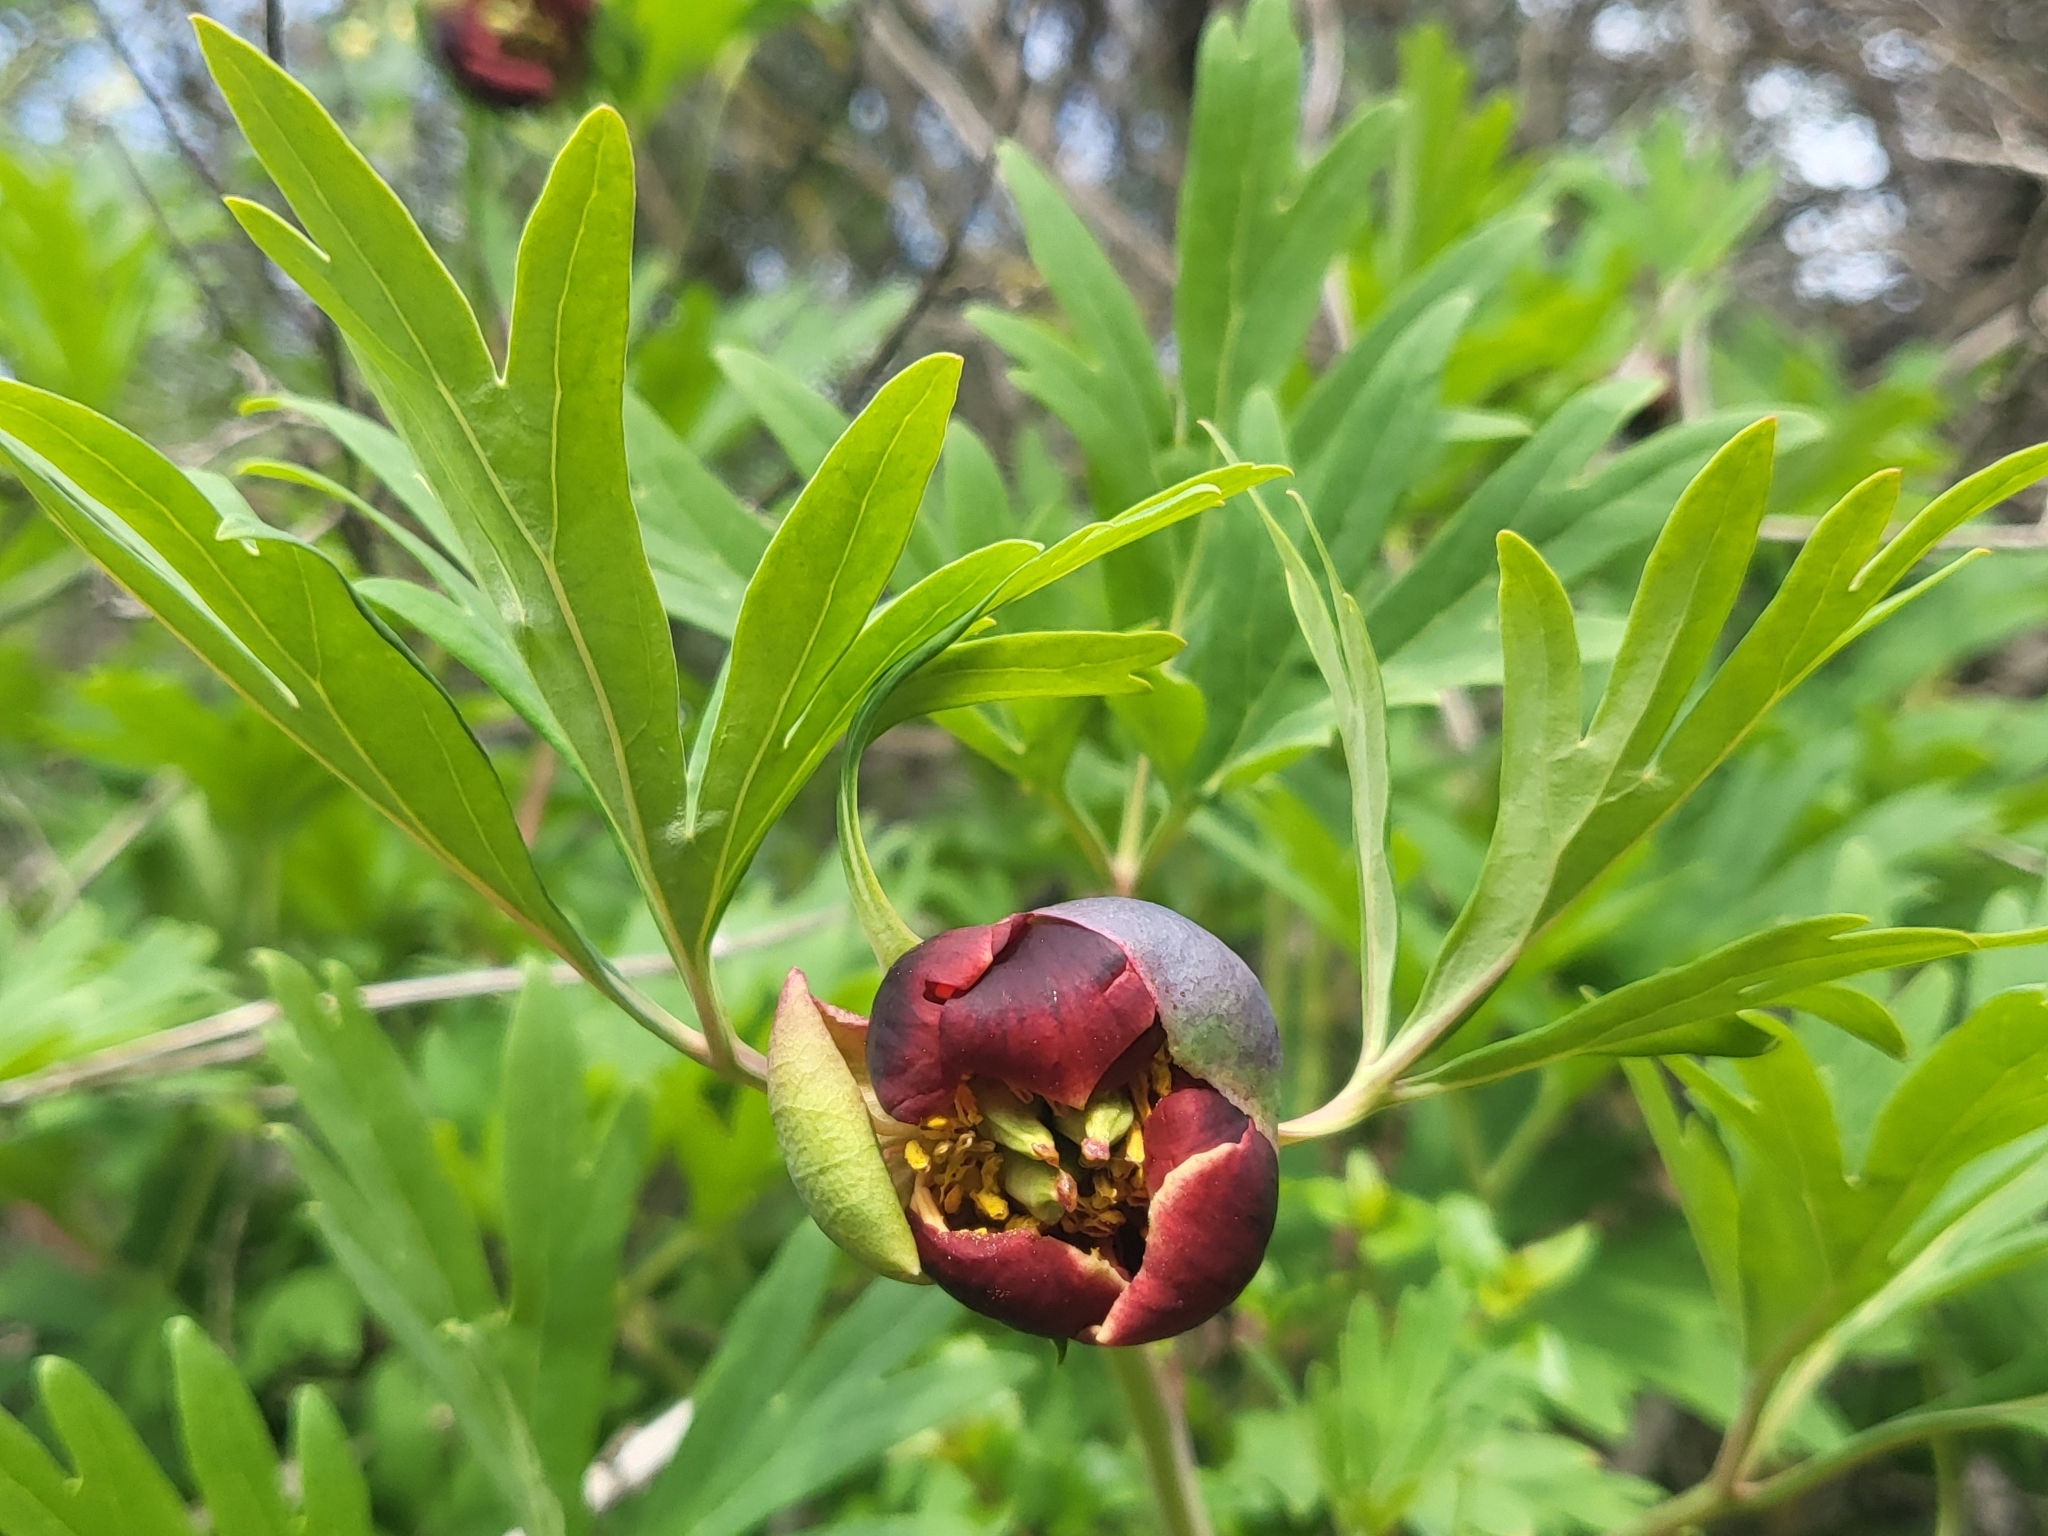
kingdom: Plantae
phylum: Tracheophyta
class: Magnoliopsida
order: Saxifragales
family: Paeoniaceae
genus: Paeonia
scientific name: Paeonia californica
